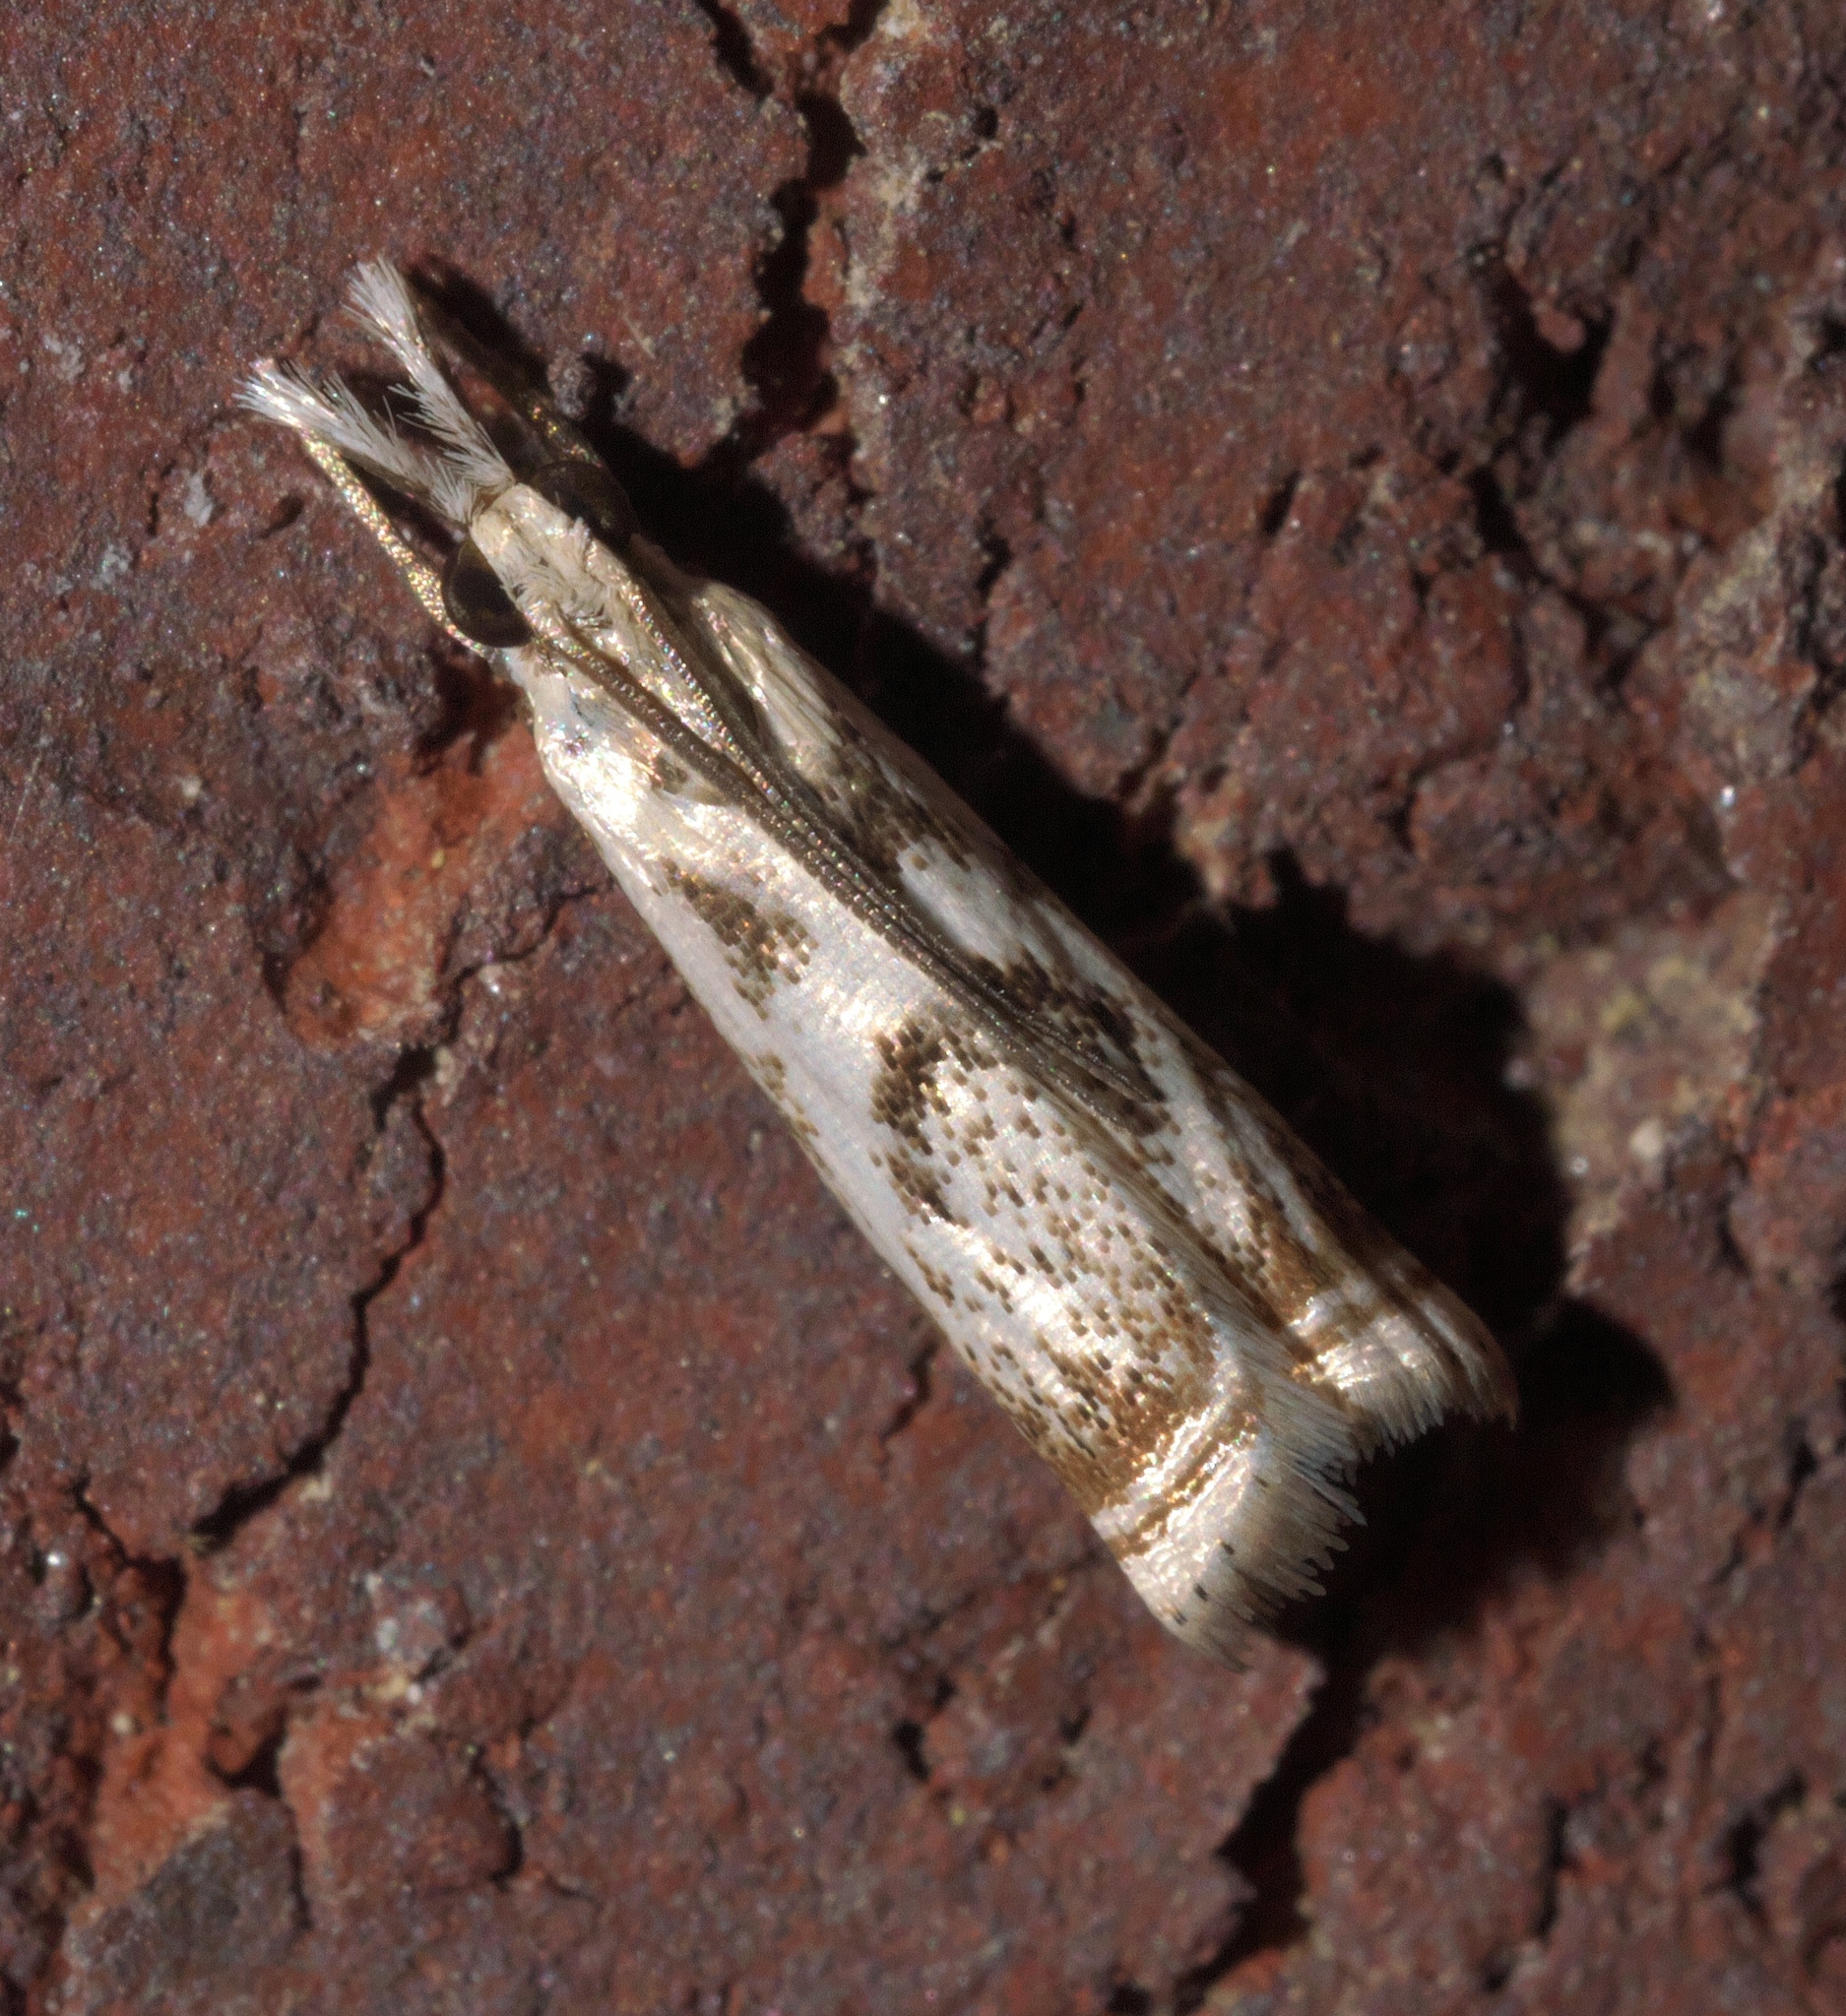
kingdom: Animalia
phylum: Arthropoda
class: Insecta
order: Lepidoptera
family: Crambidae
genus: Microcrambus
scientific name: Microcrambus elegans
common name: Elegant grass-veneer
